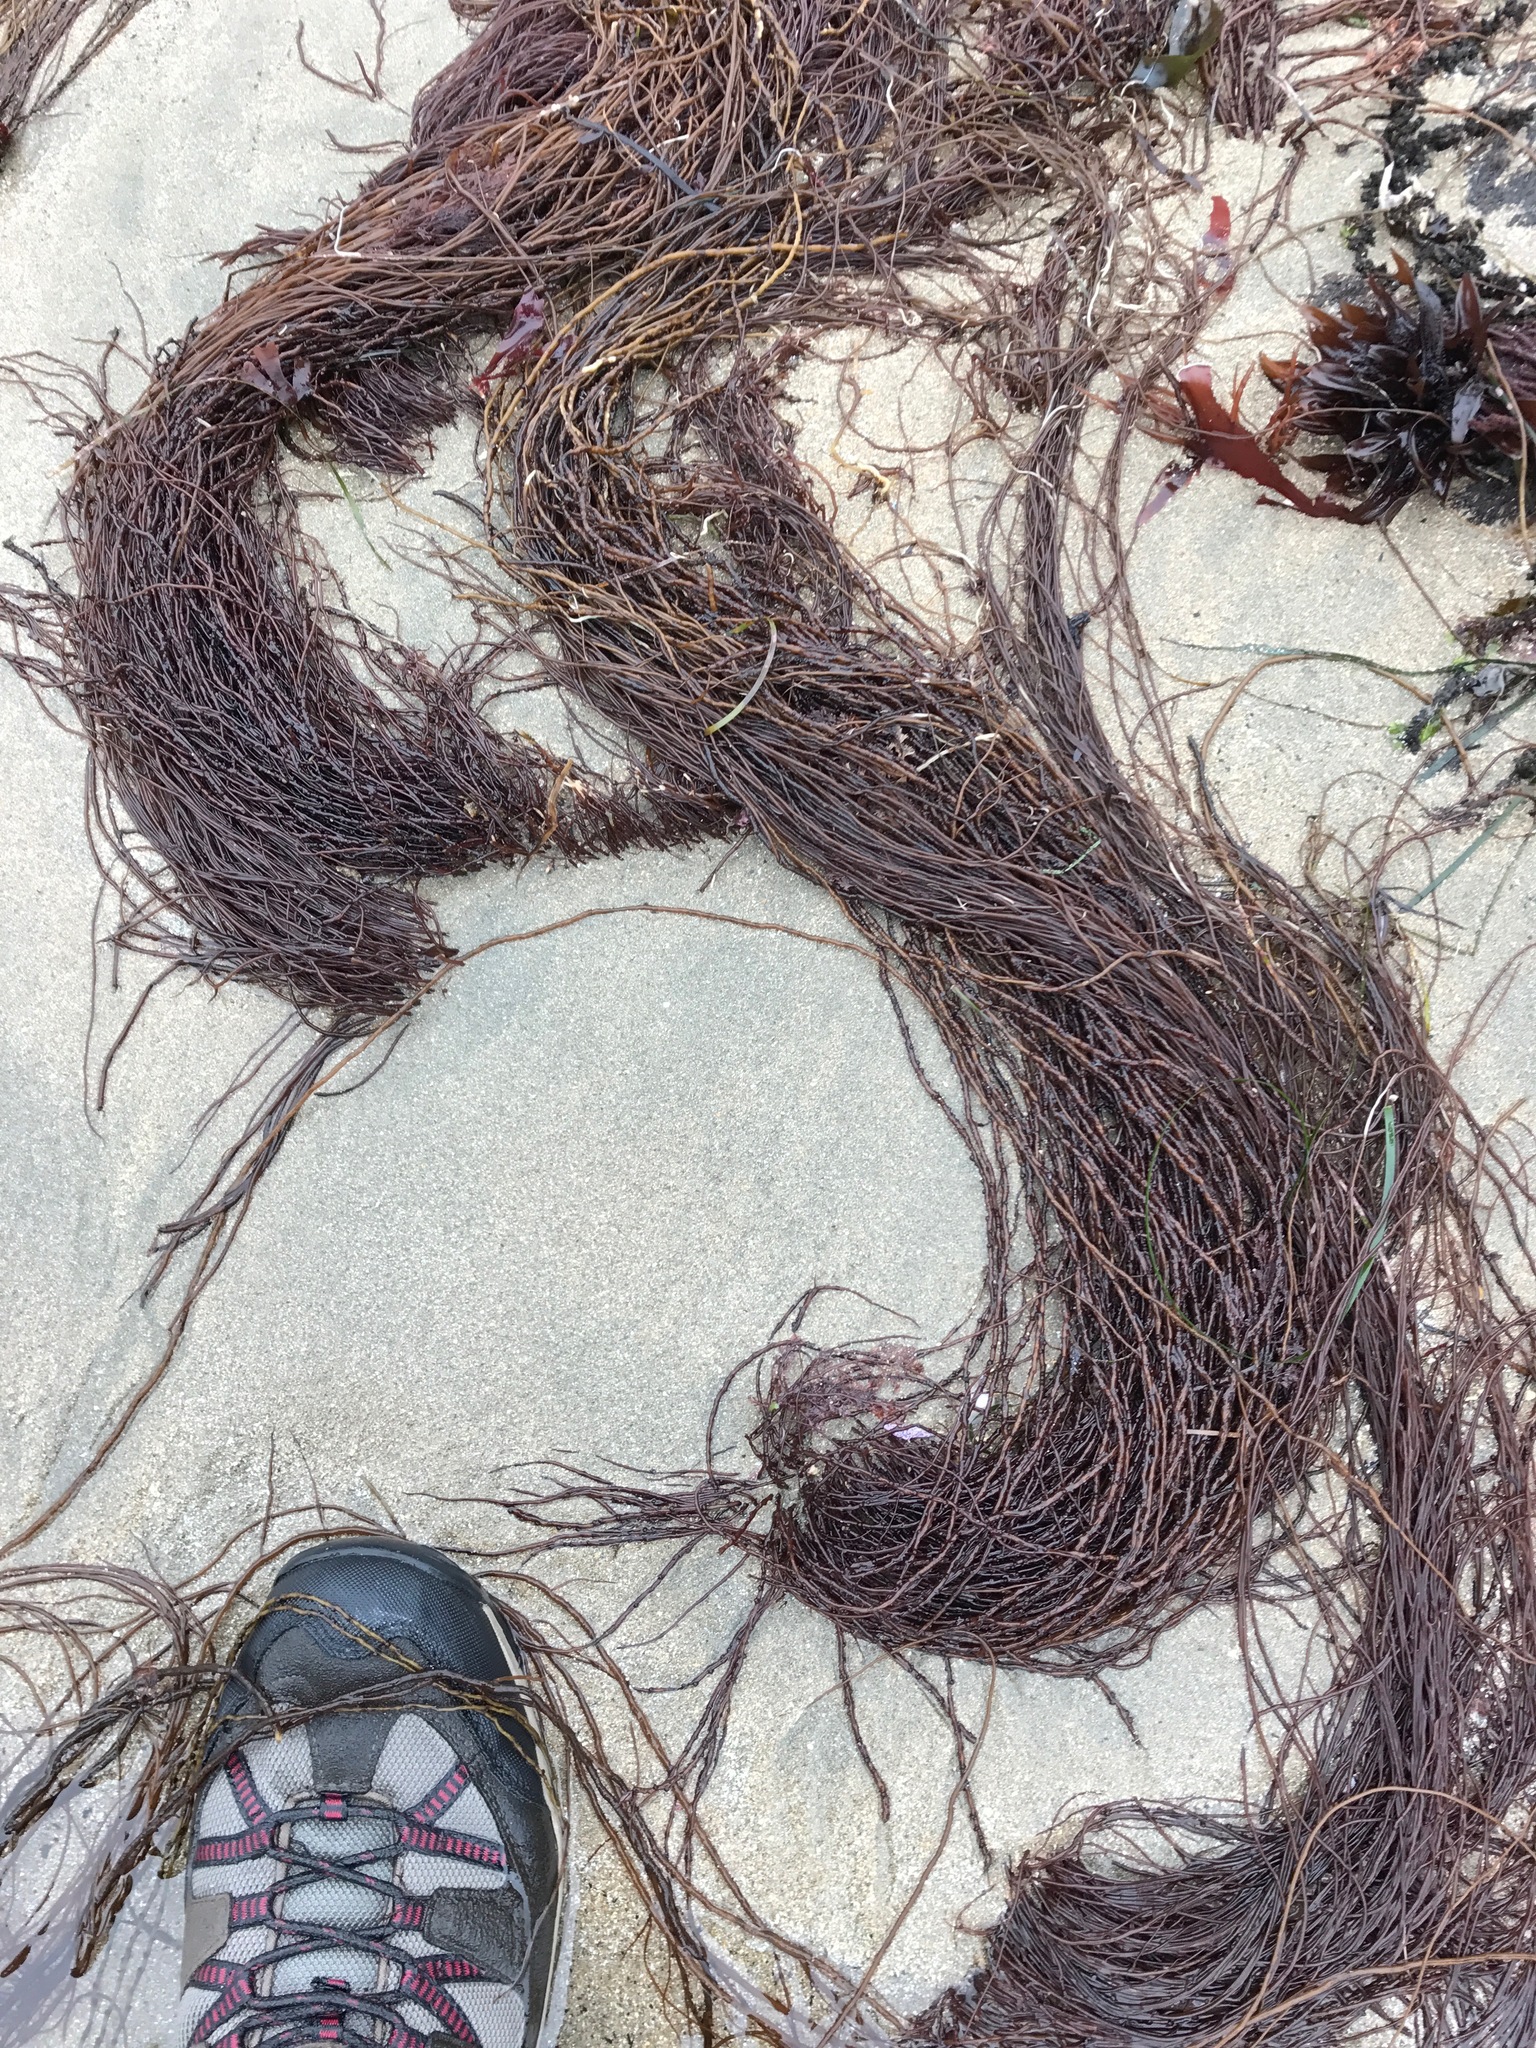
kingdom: Plantae
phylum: Rhodophyta
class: Florideophyceae
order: Gracilariales
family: Gracilariaceae
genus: Gracilariopsis
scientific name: Gracilariopsis andersonii
